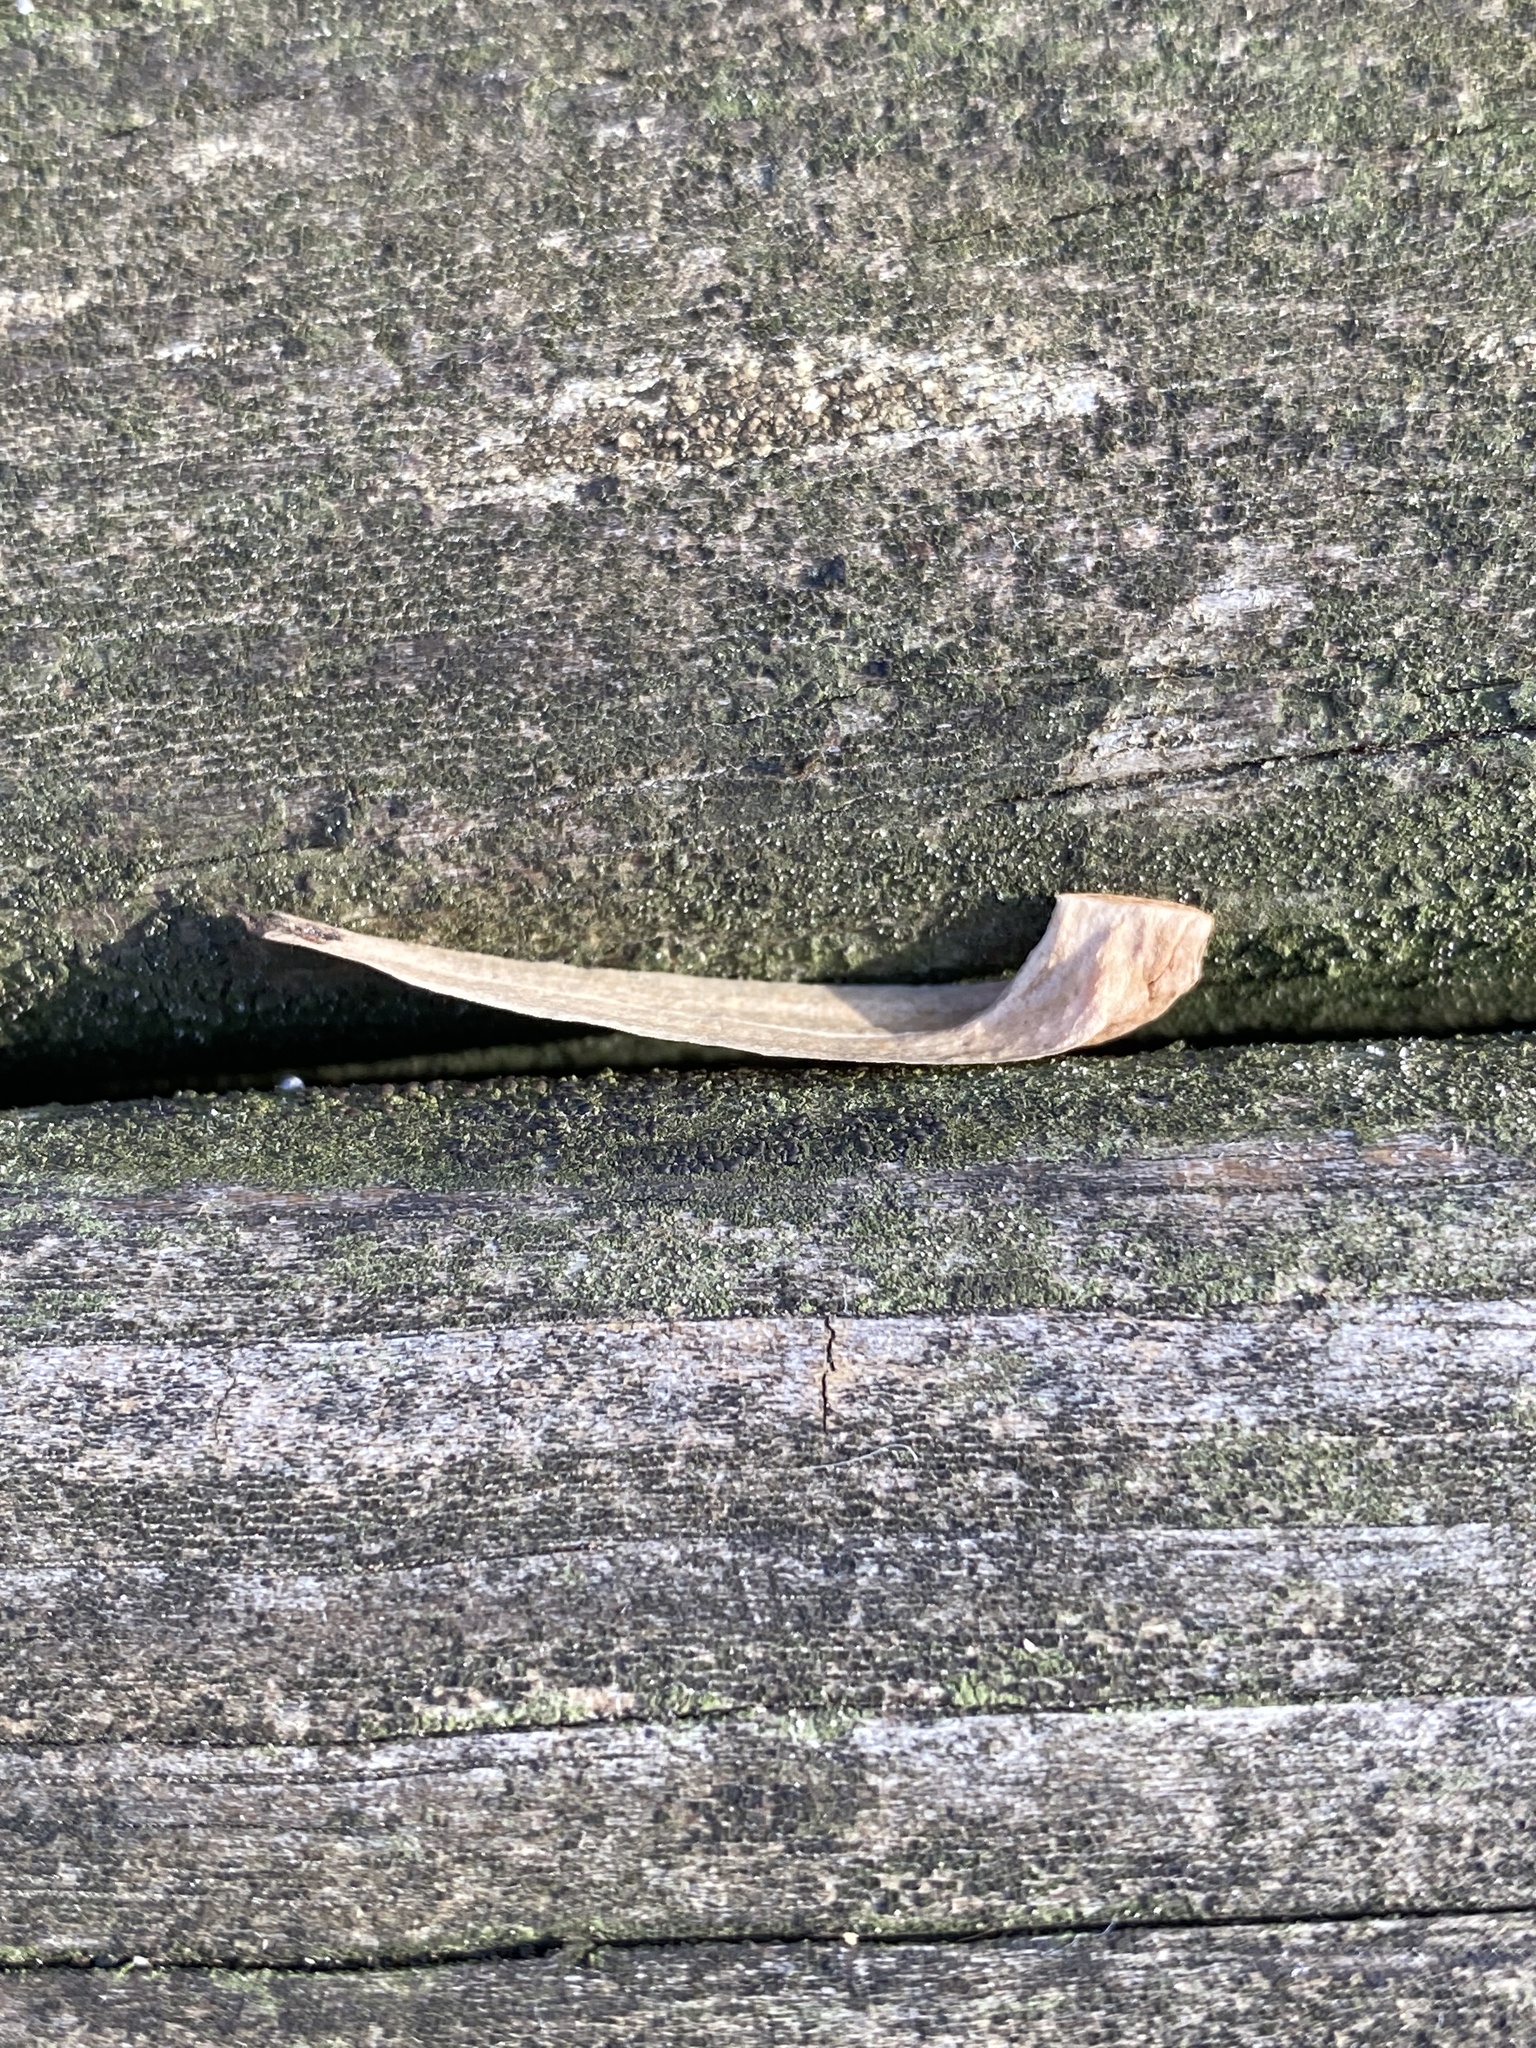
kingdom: Plantae
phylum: Tracheophyta
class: Magnoliopsida
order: Magnoliales
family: Magnoliaceae
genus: Liriodendron
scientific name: Liriodendron tulipifera
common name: Tulip tree
